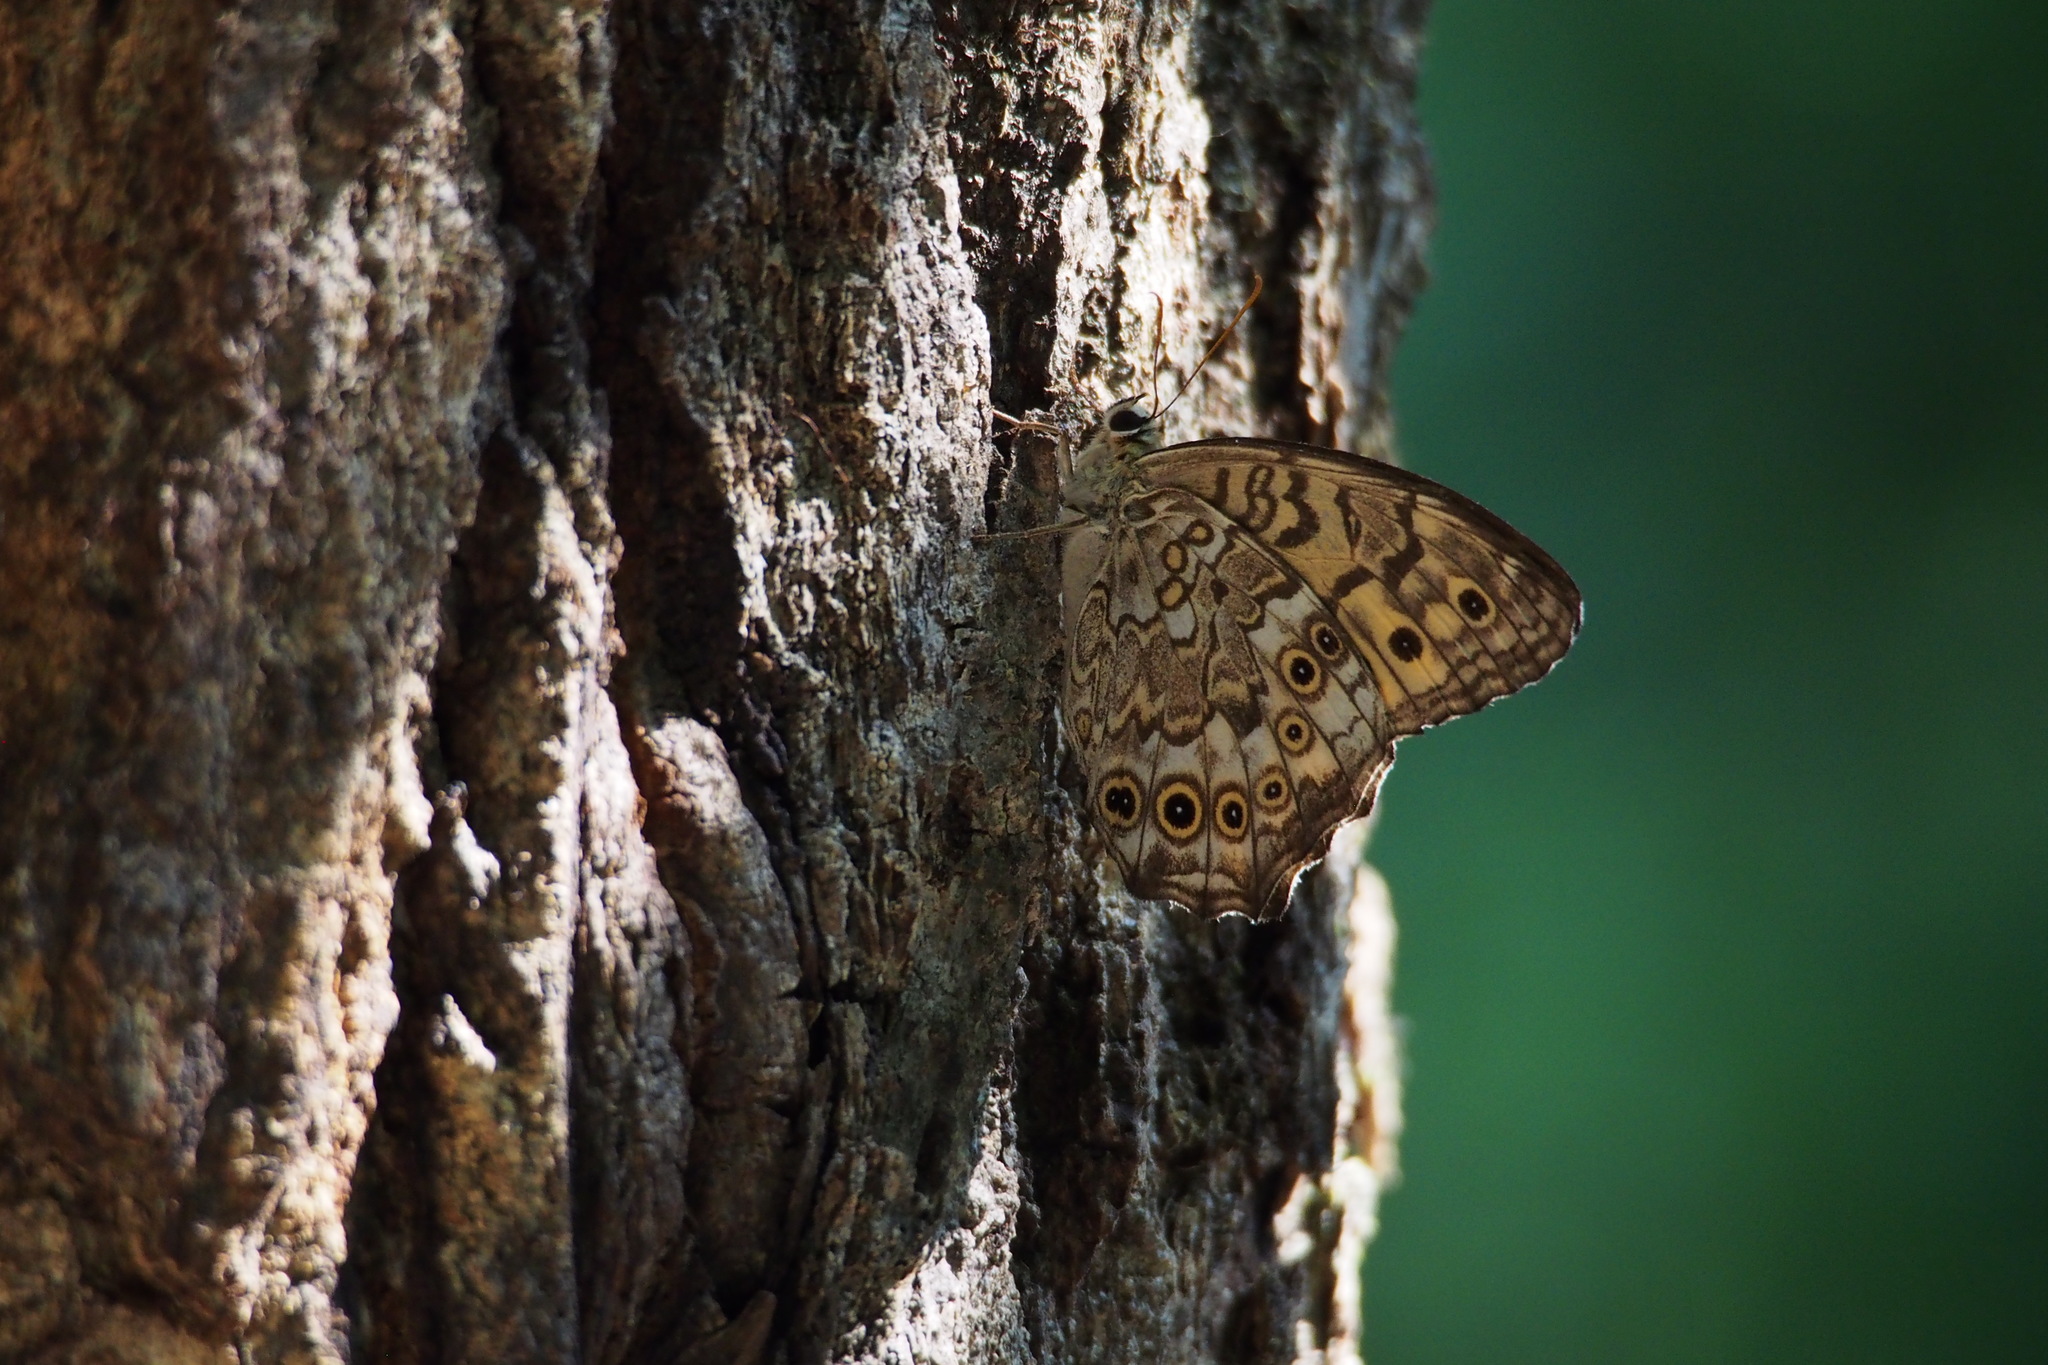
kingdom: Animalia
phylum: Arthropoda
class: Insecta
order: Lepidoptera
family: Nymphalidae
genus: Neope
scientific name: Neope goschkevitschii
